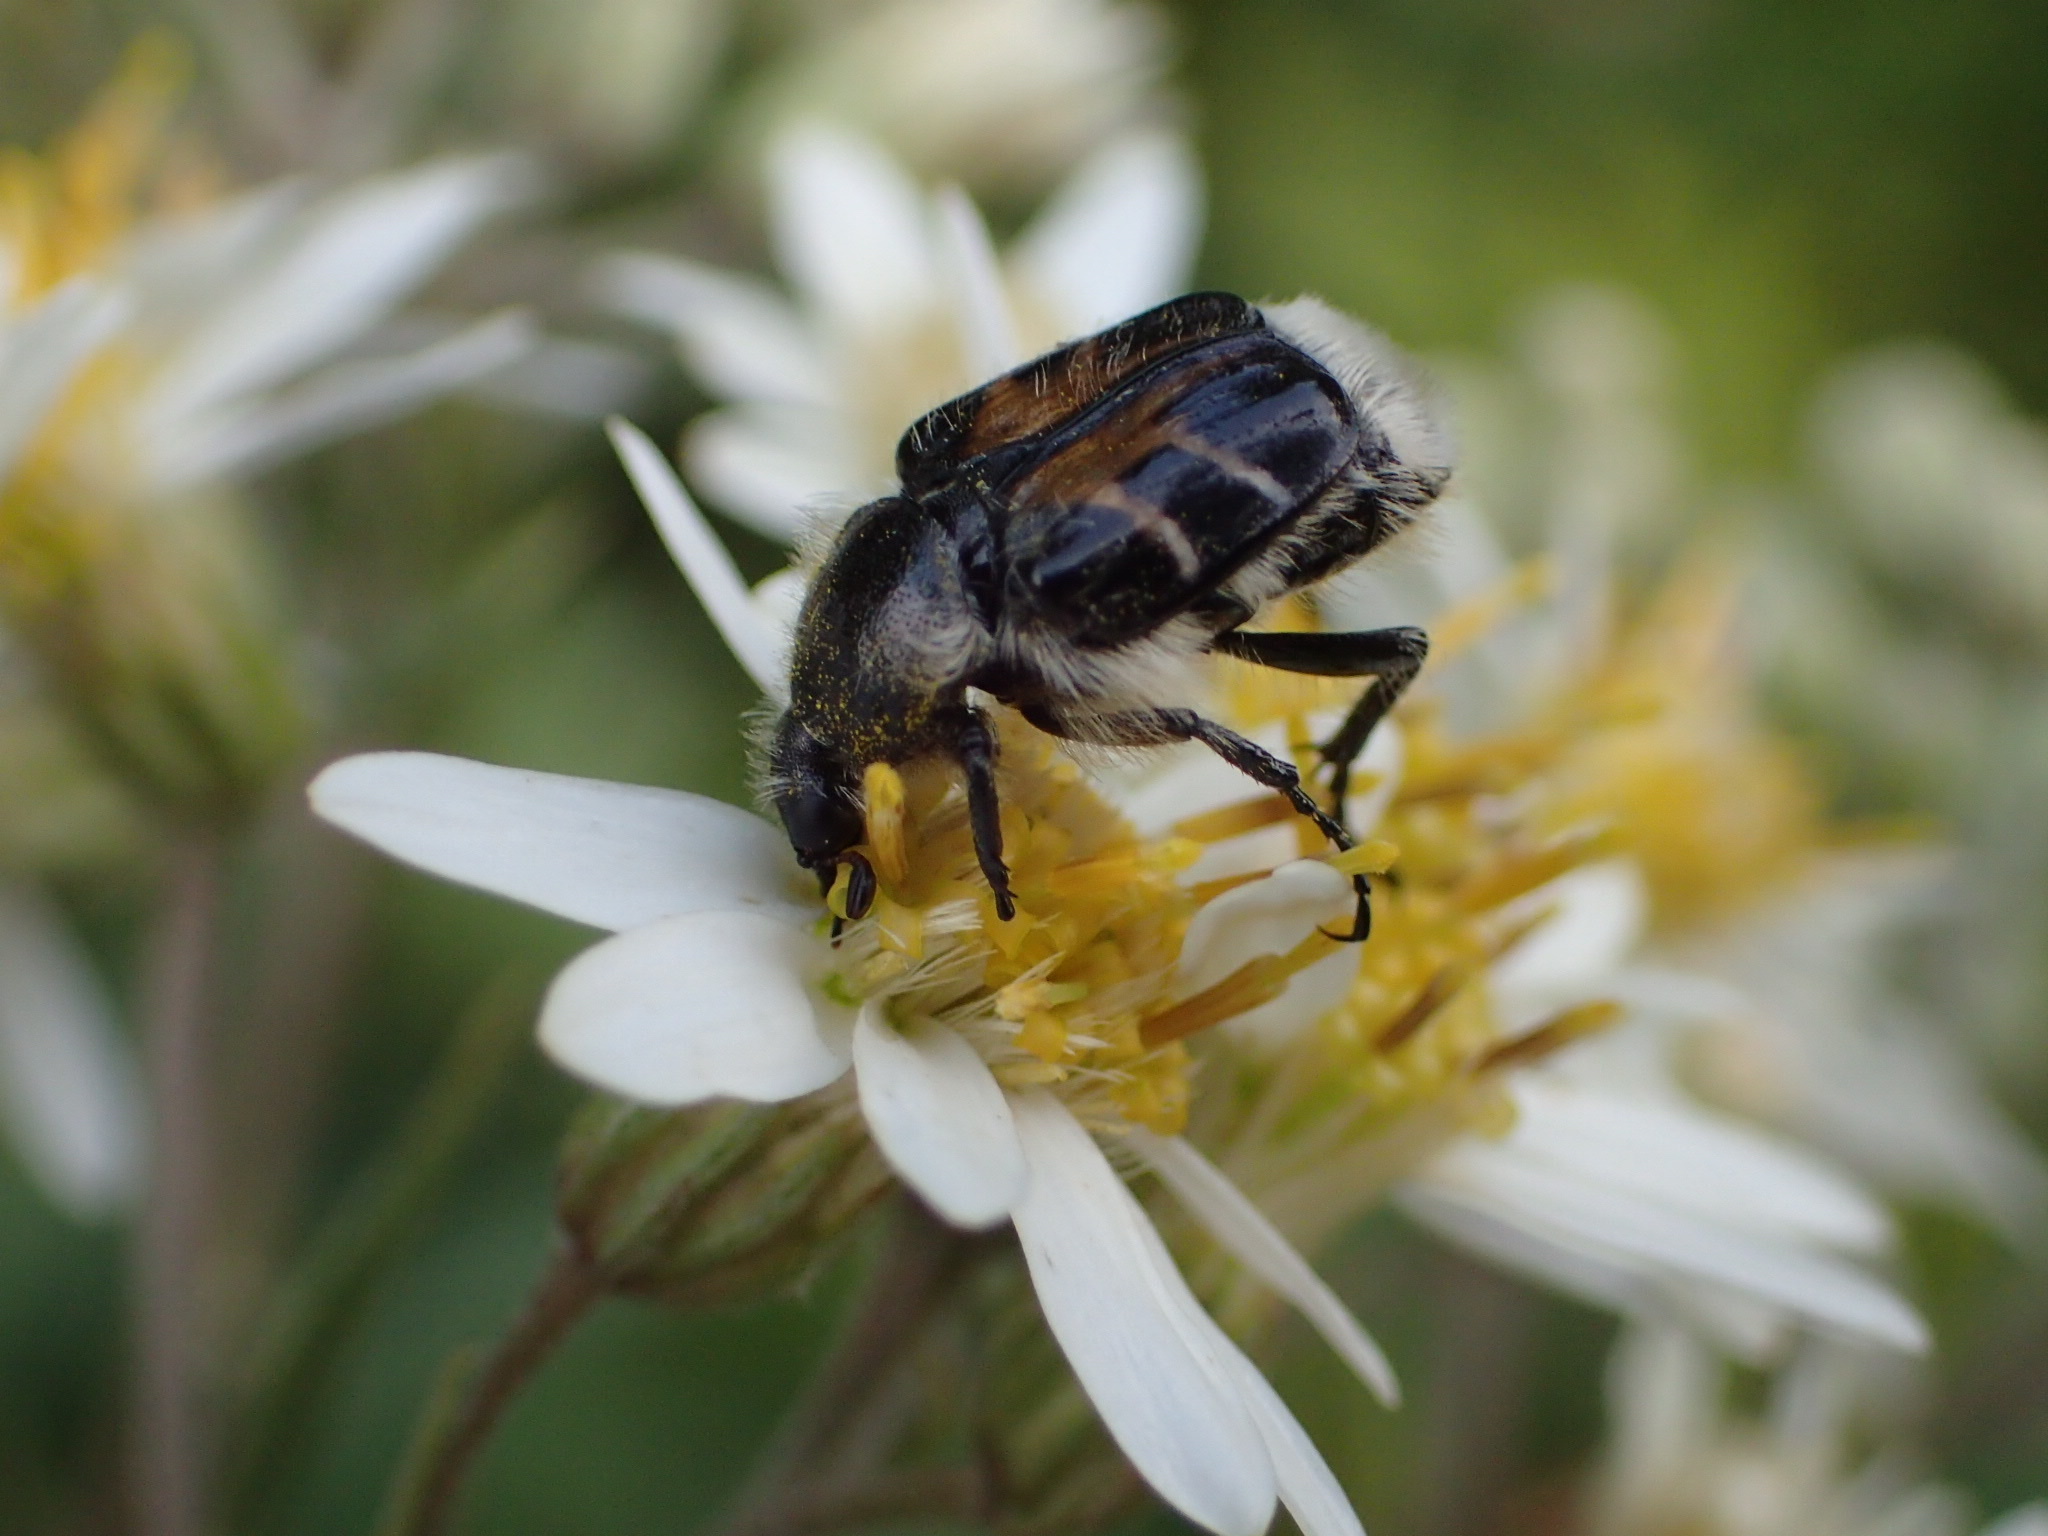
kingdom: Animalia
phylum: Arthropoda
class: Insecta
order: Coleoptera
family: Scarabaeidae
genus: Trichiotinus
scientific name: Trichiotinus assimilis
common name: Bee-mimic beetle
